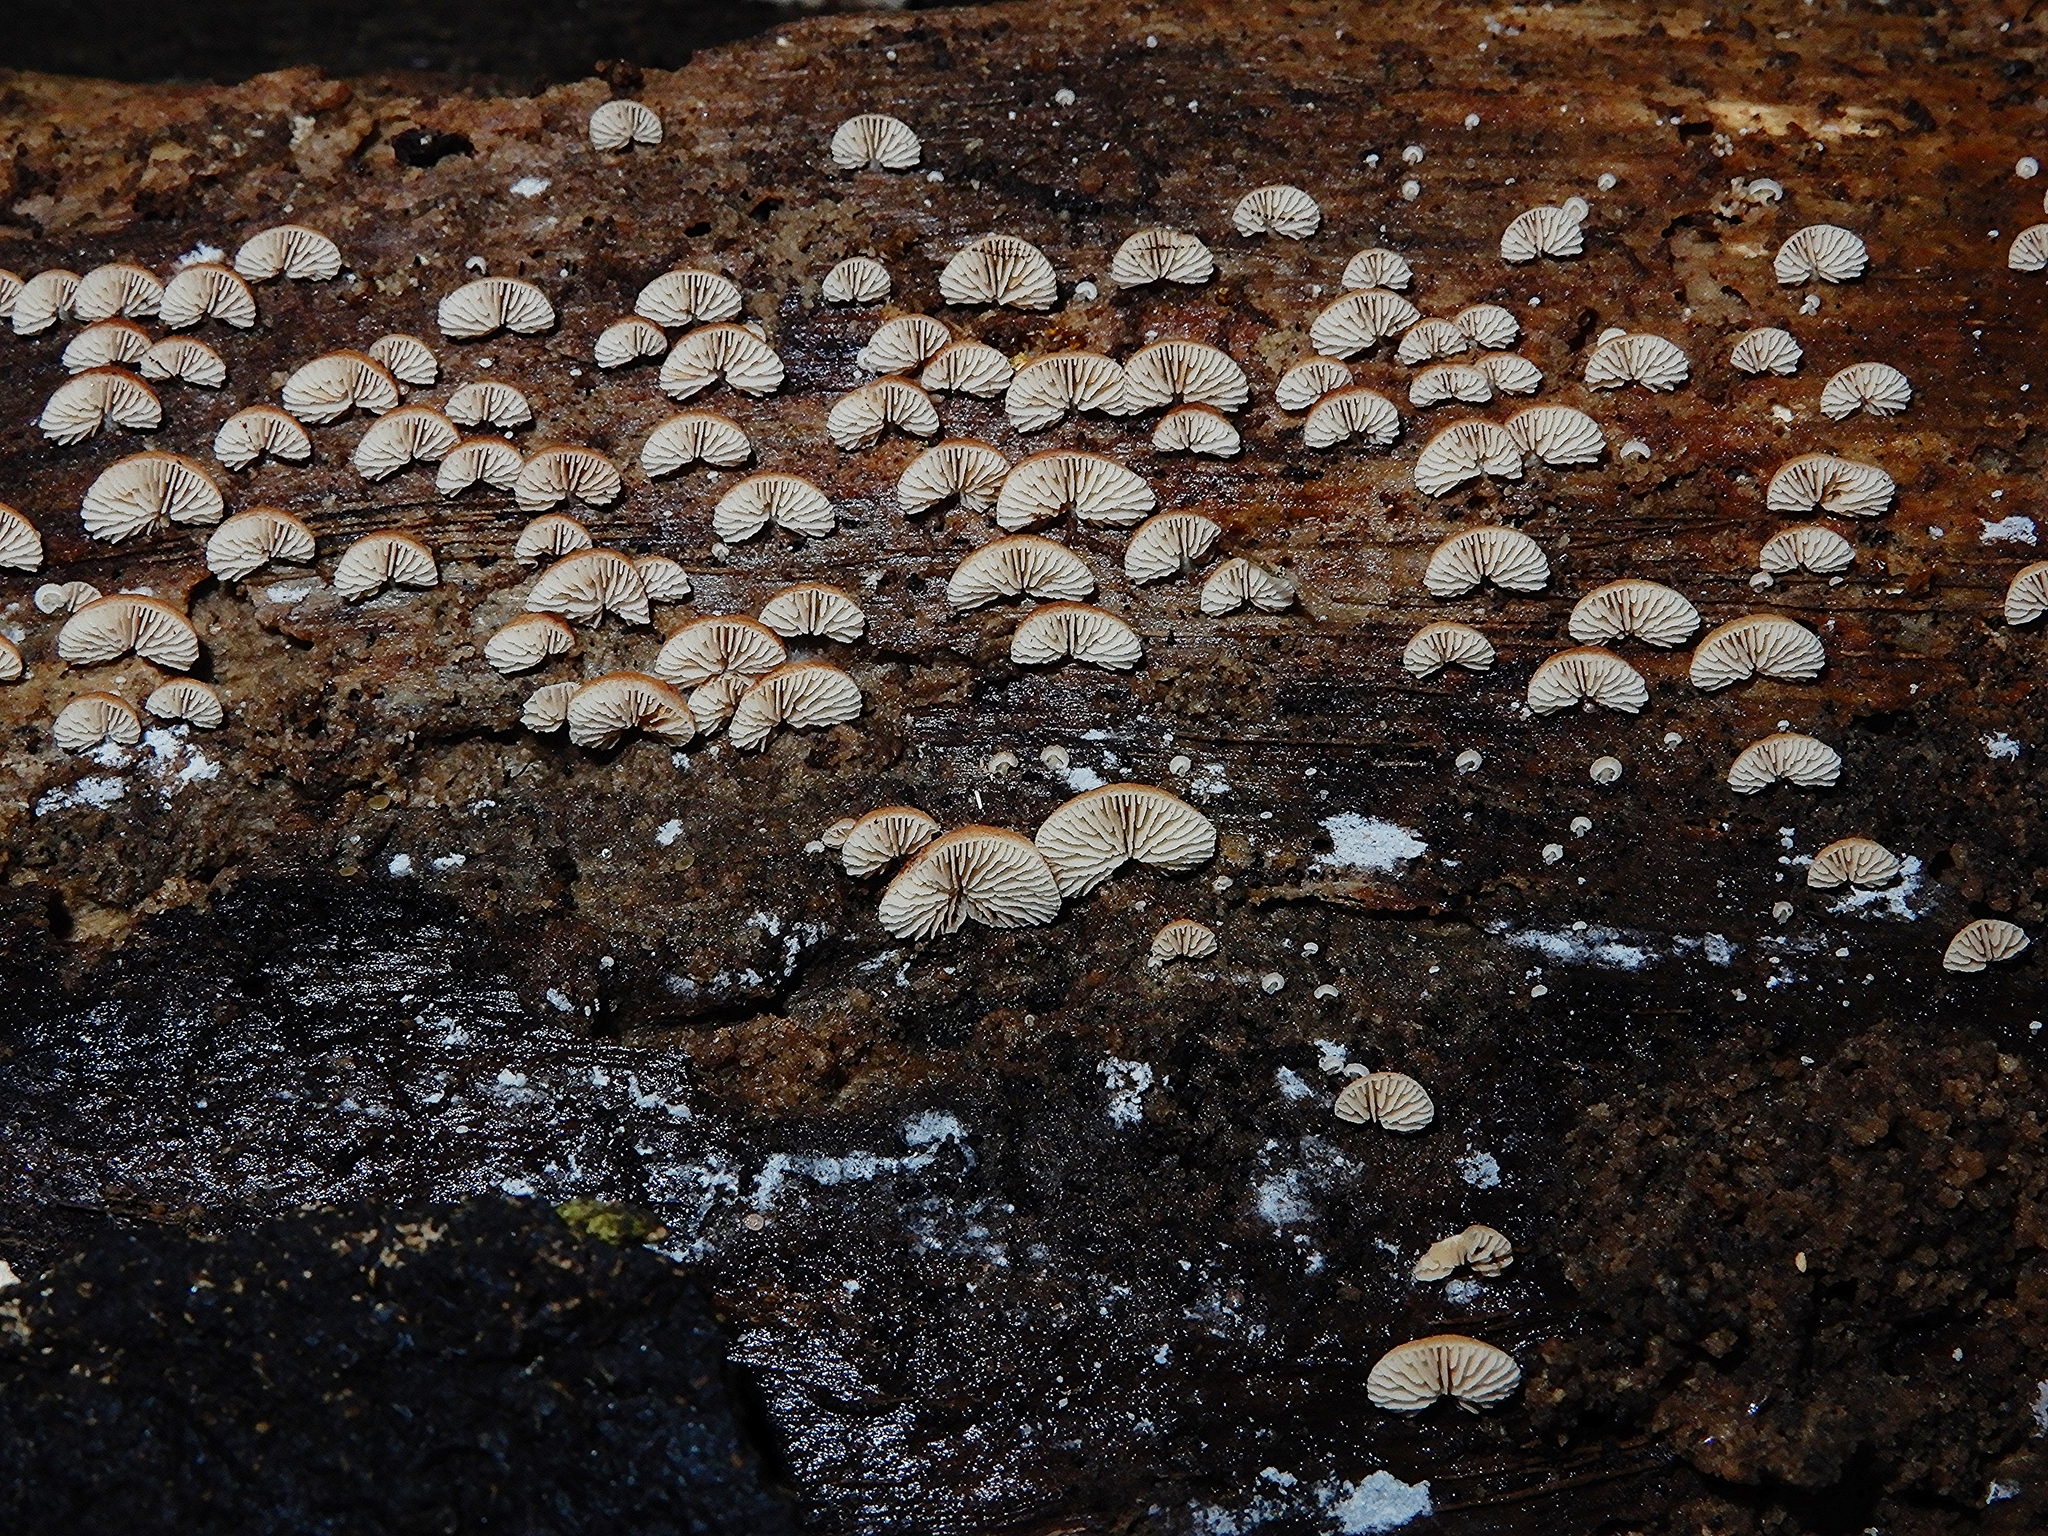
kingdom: Fungi
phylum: Basidiomycota
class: Agaricomycetes
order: Agaricales
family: Crepidotaceae
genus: Crepidotus
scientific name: Crepidotus nanicus
